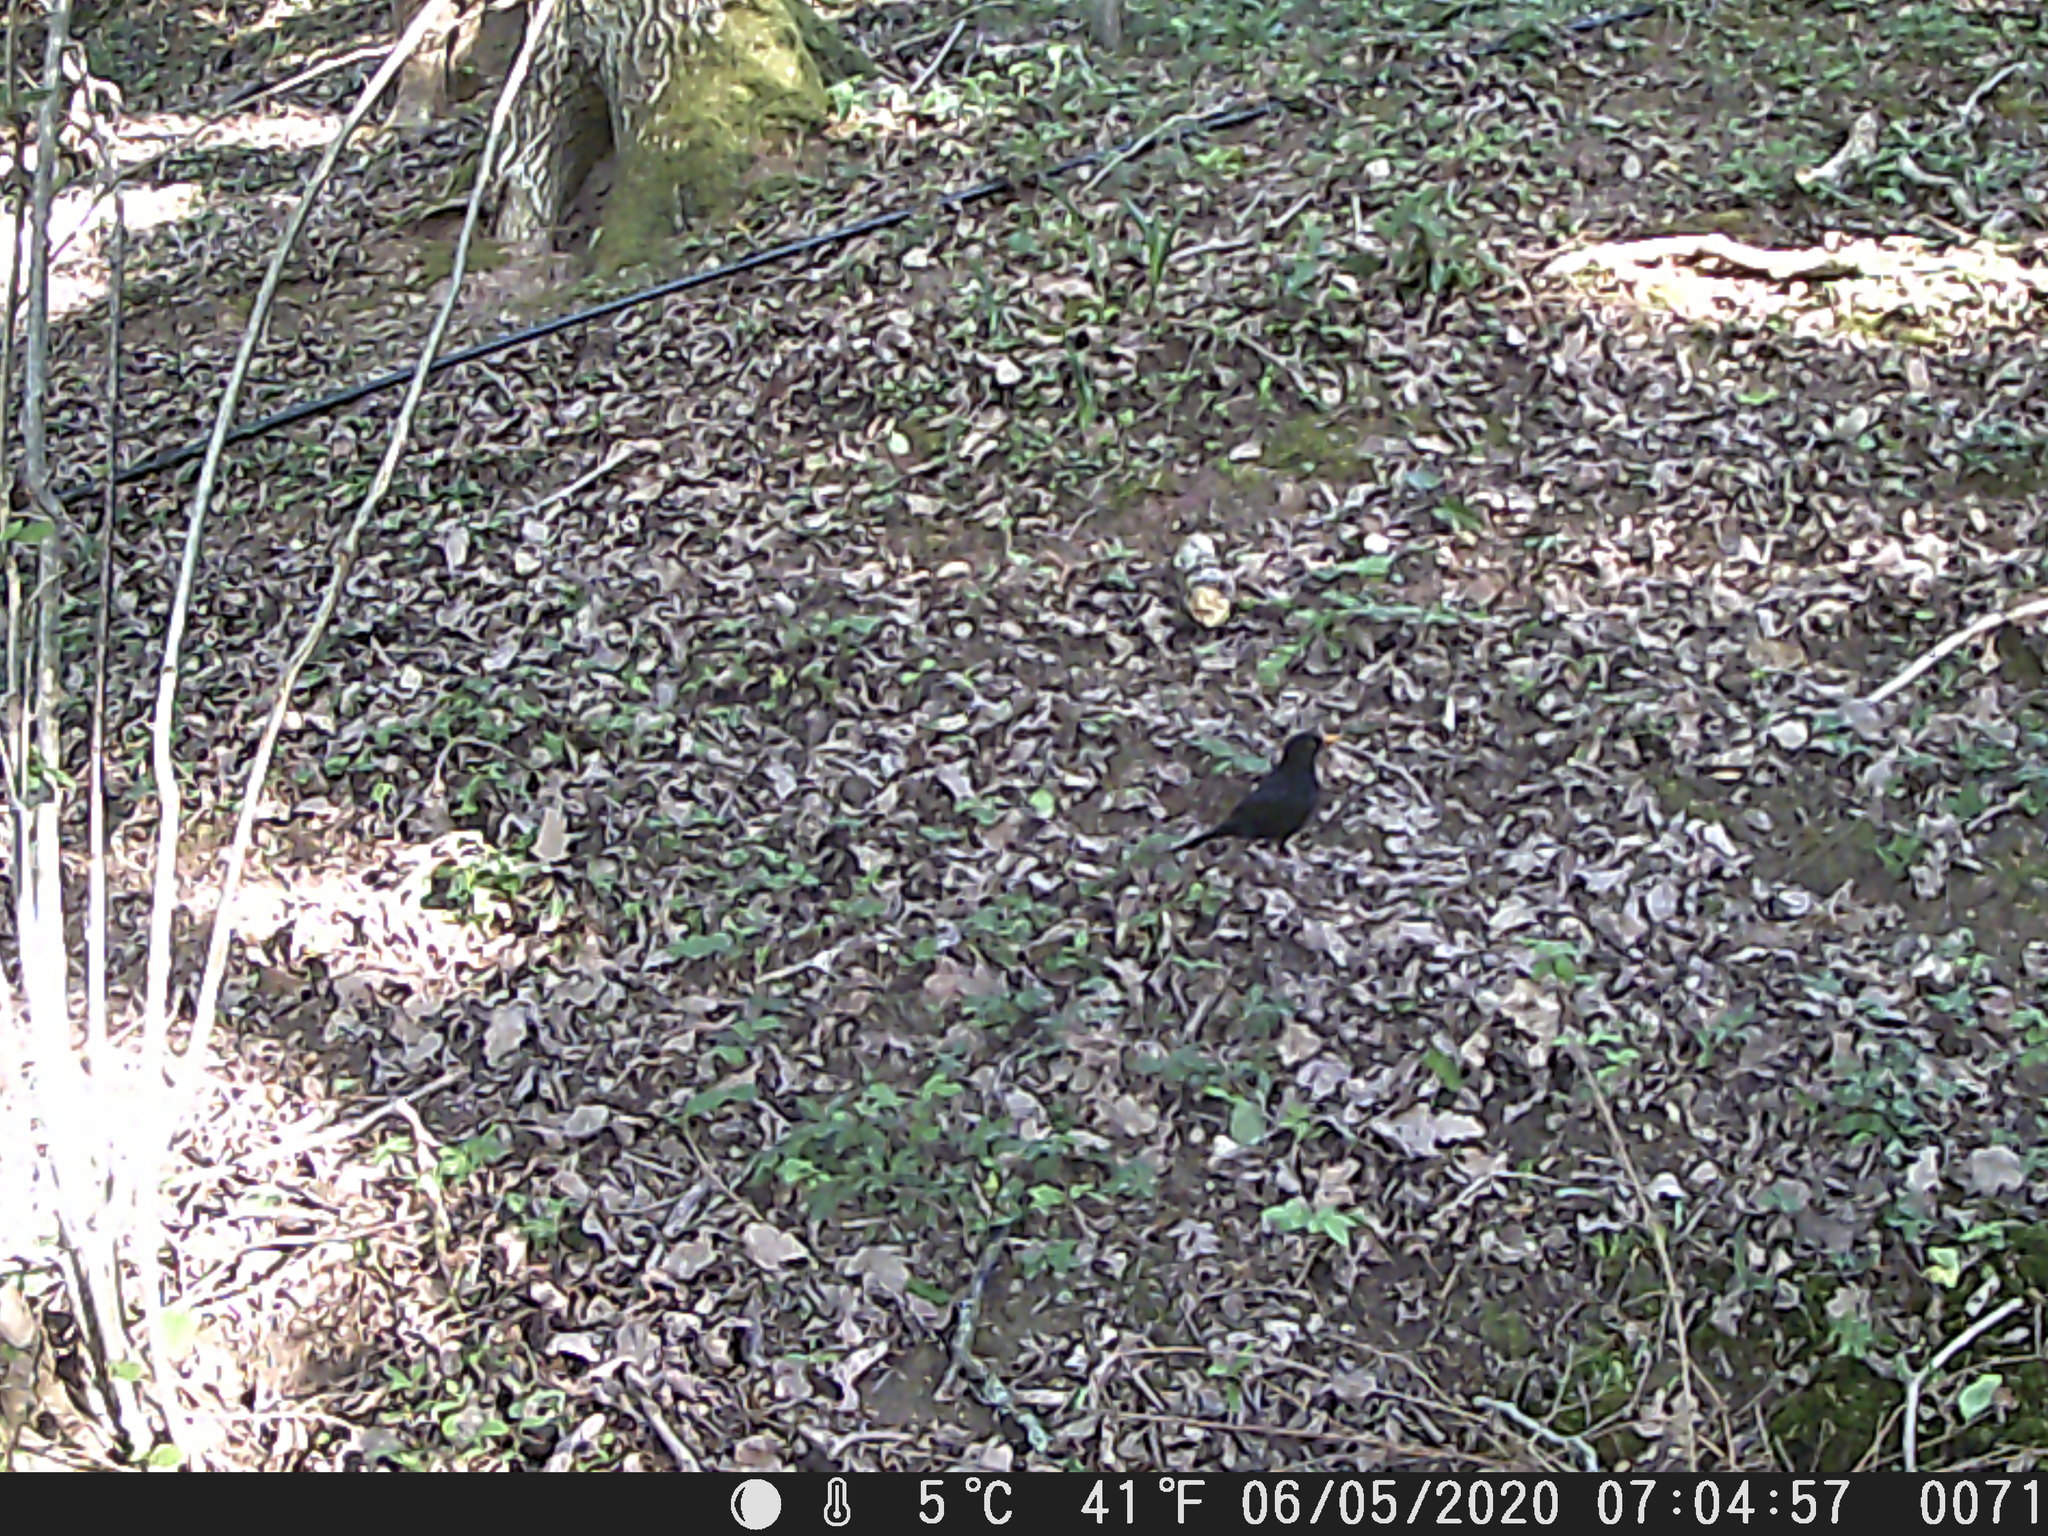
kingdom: Animalia
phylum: Chordata
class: Aves
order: Passeriformes
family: Turdidae
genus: Turdus
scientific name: Turdus merula
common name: Common blackbird
